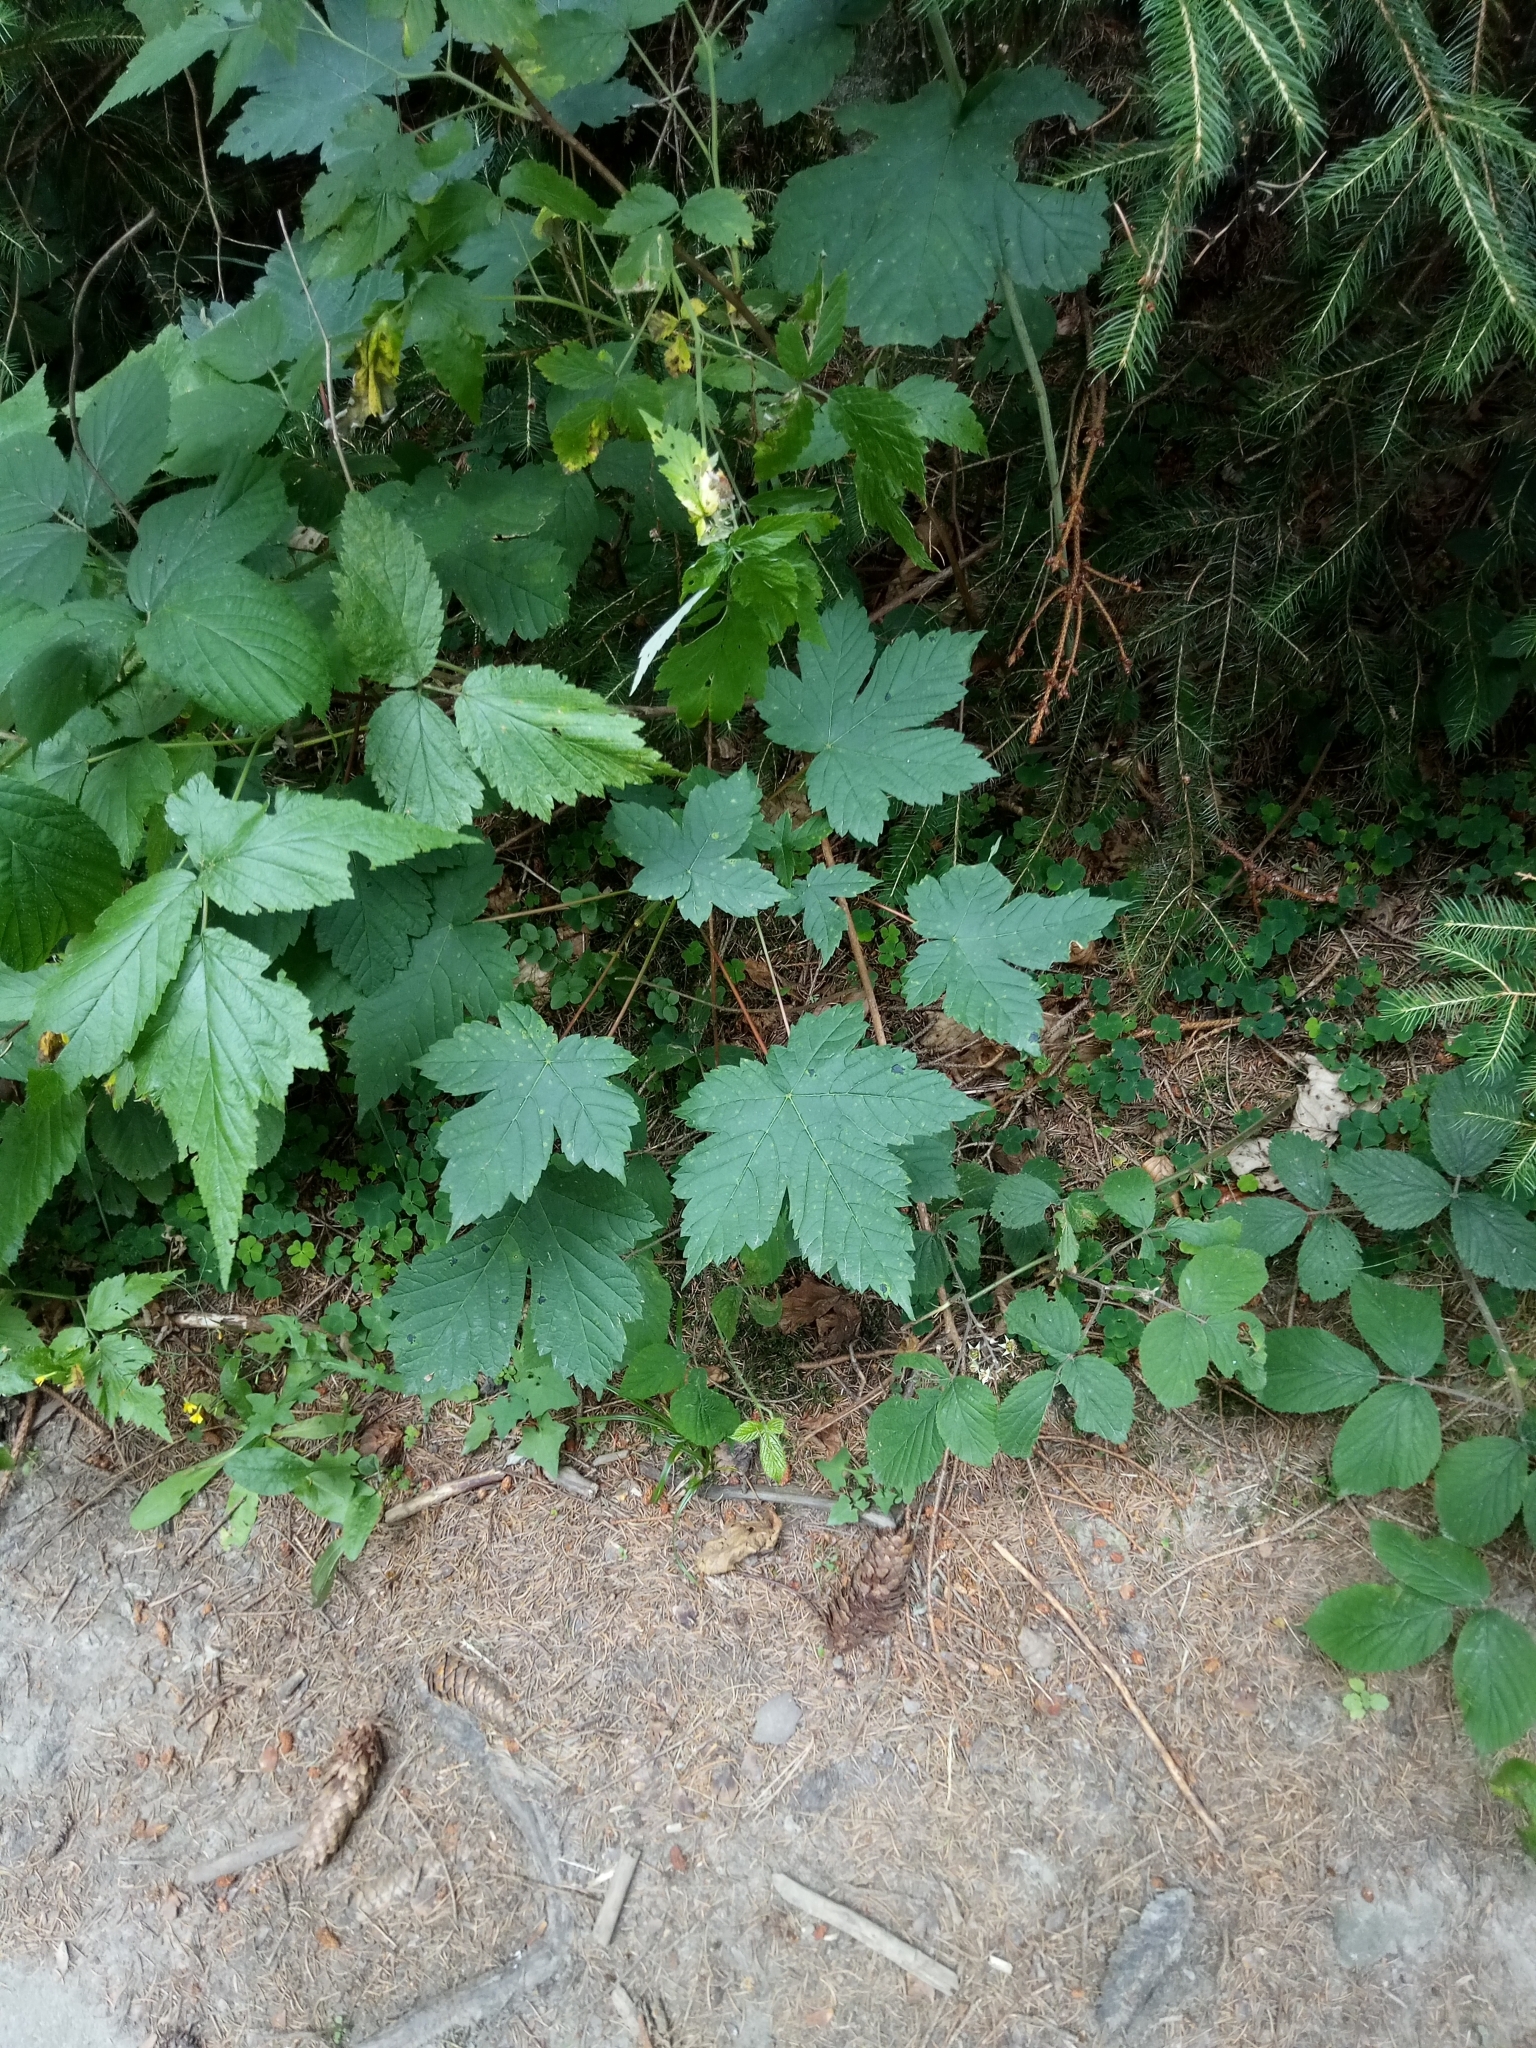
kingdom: Plantae
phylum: Tracheophyta
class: Magnoliopsida
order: Sapindales
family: Sapindaceae
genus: Acer
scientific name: Acer pseudoplatanus
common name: Sycamore
